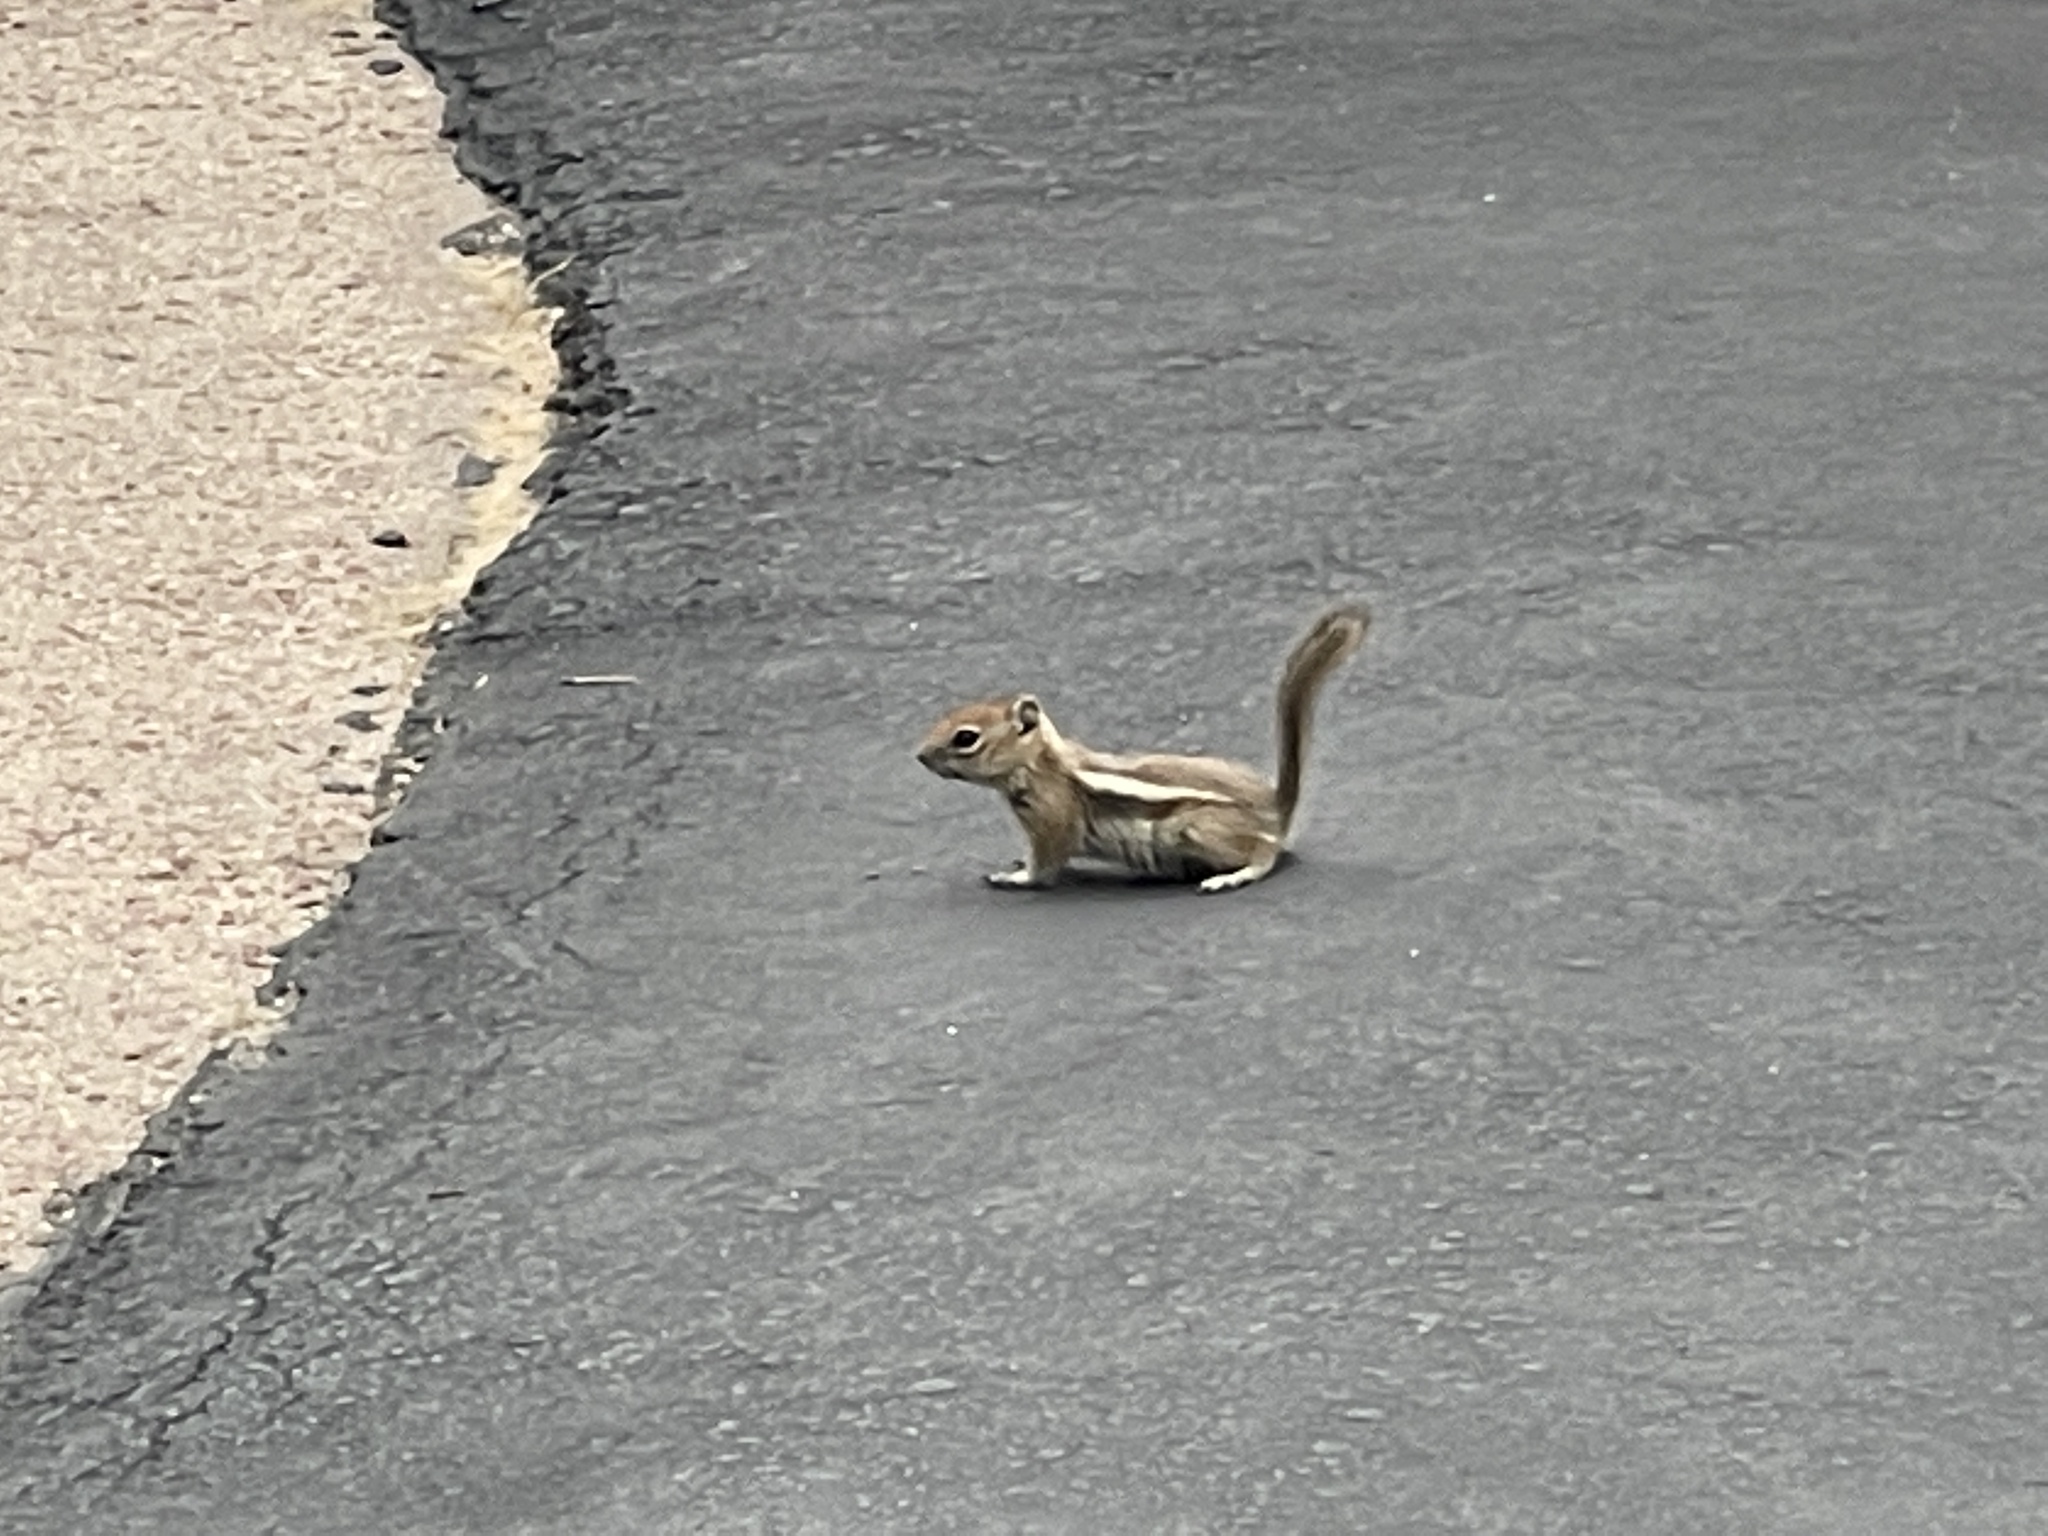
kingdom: Animalia
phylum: Chordata
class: Mammalia
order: Rodentia
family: Sciuridae
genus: Callospermophilus
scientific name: Callospermophilus lateralis
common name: Golden-mantled ground squirrel
